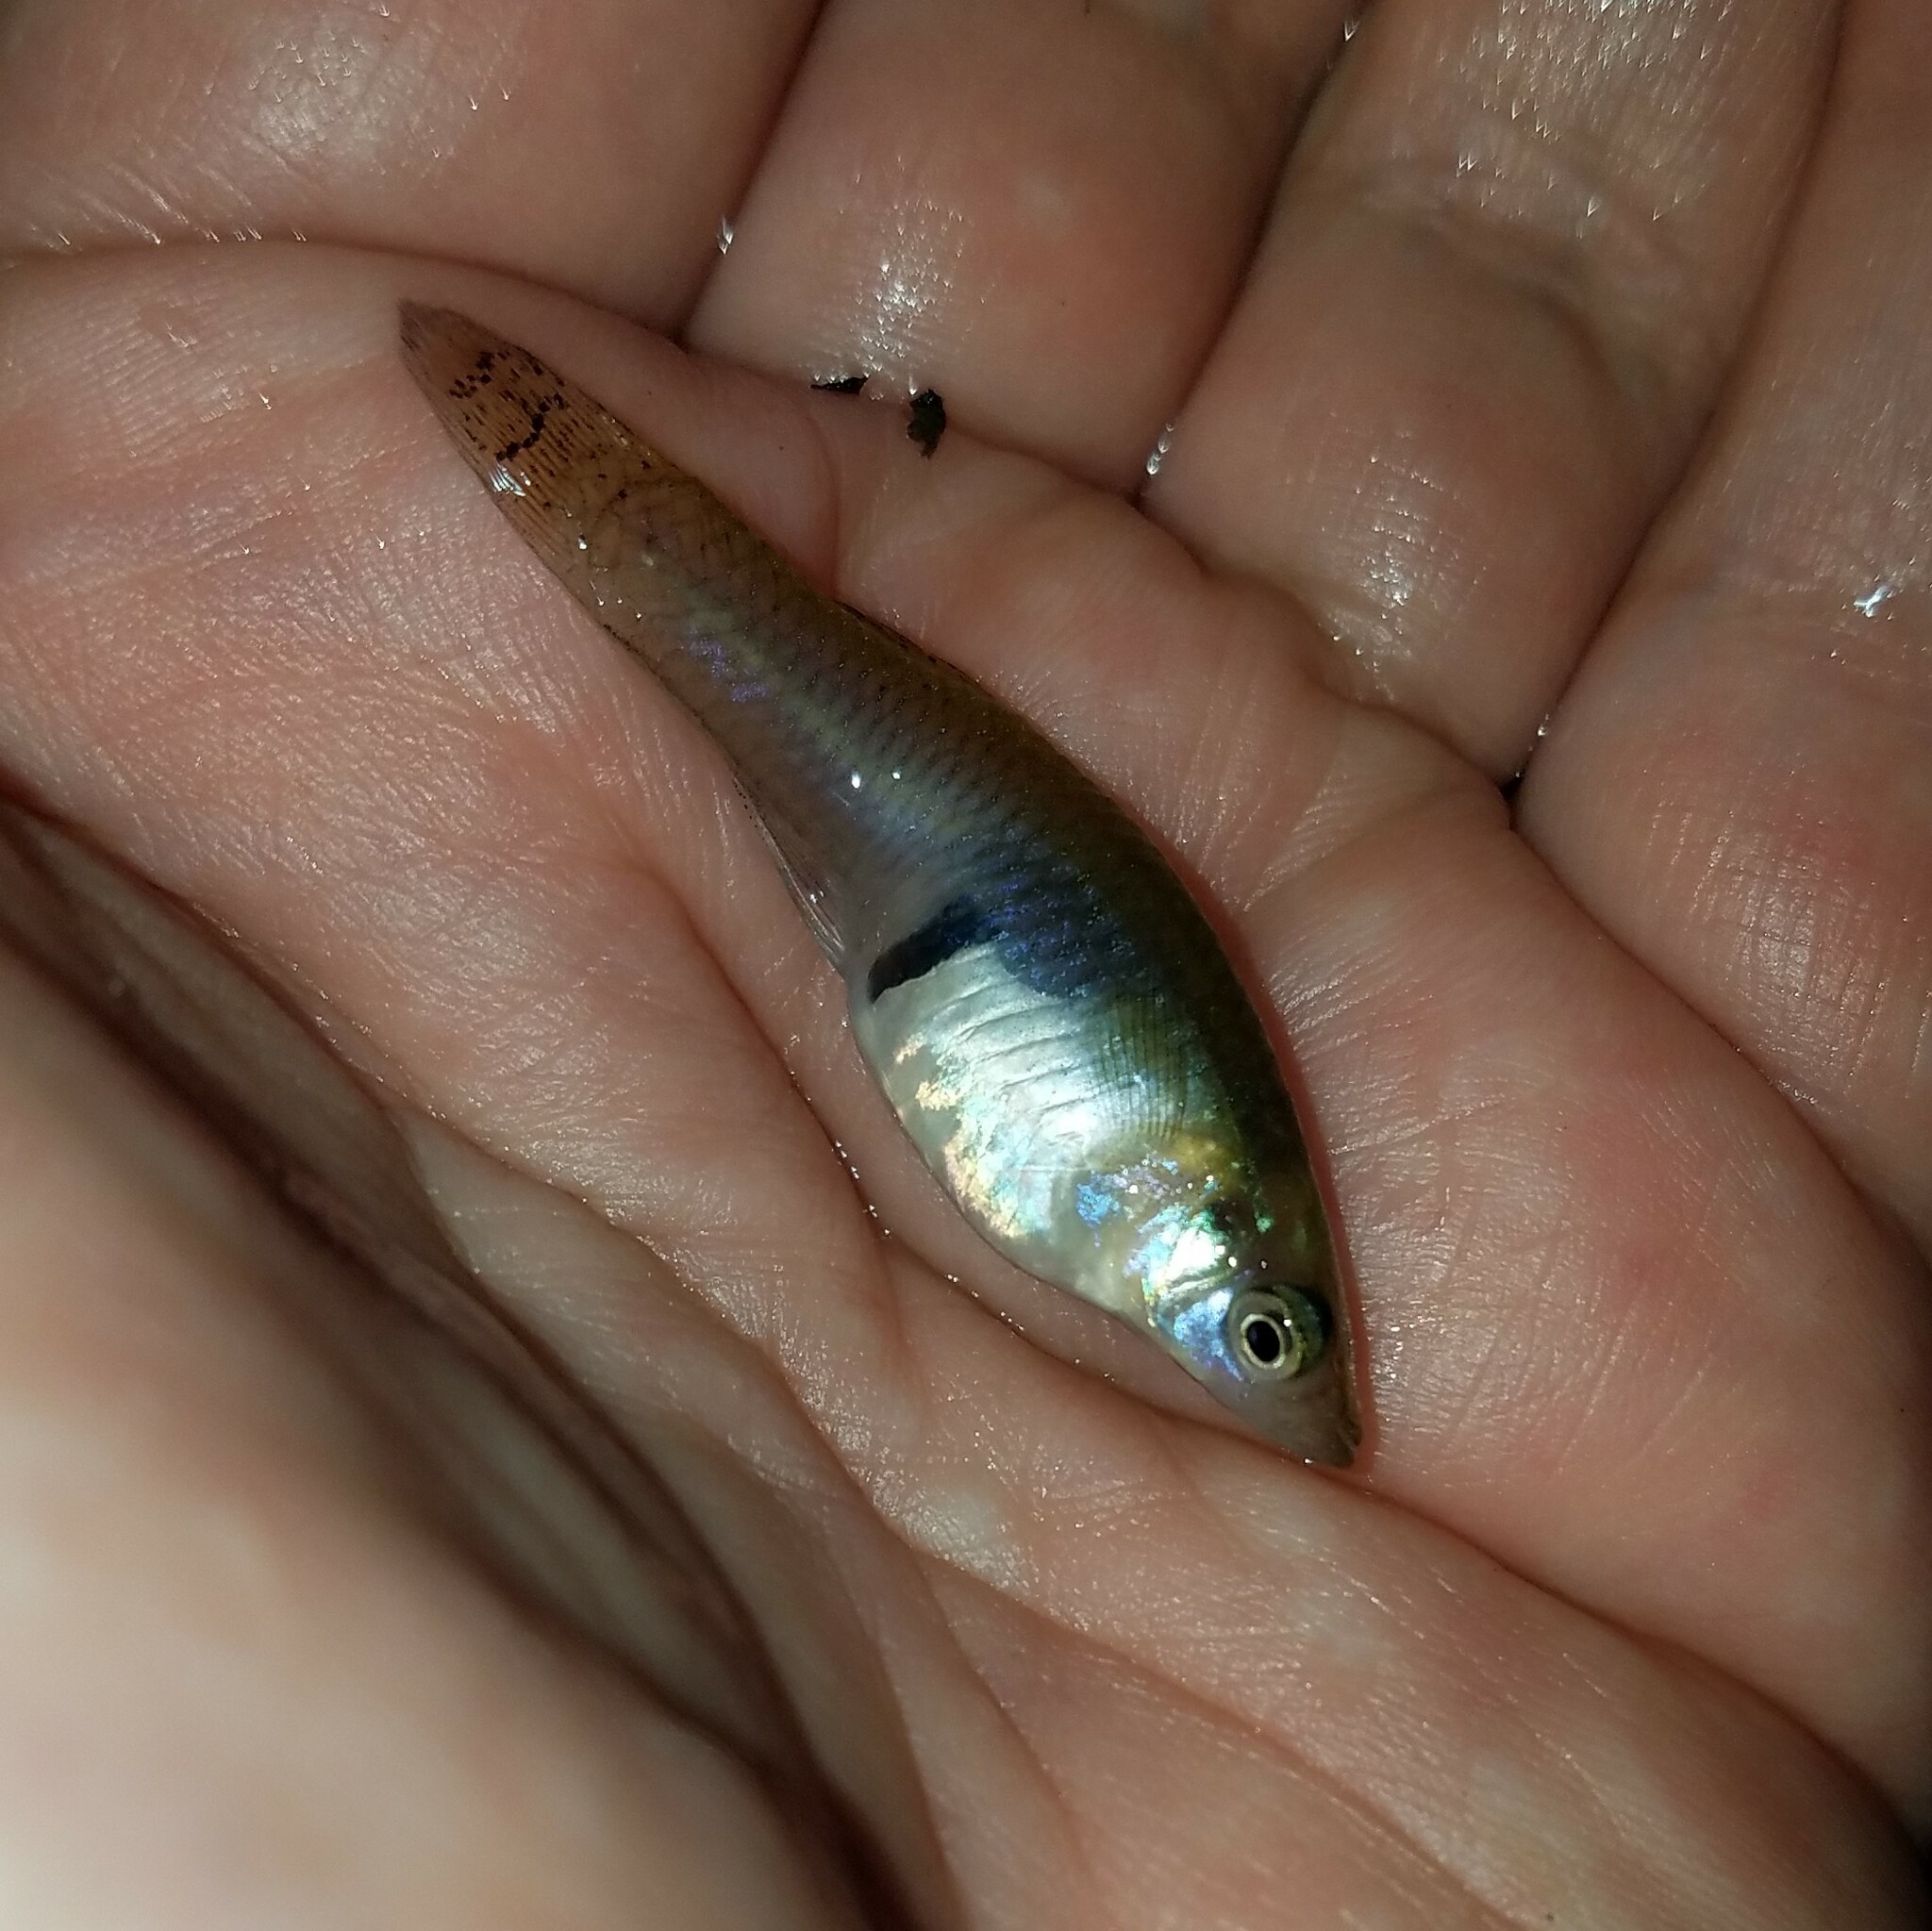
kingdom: Animalia
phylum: Chordata
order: Cyprinodontiformes
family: Poeciliidae
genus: Gambusia
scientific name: Gambusia holbrooki
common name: Eastern mosquitofish
